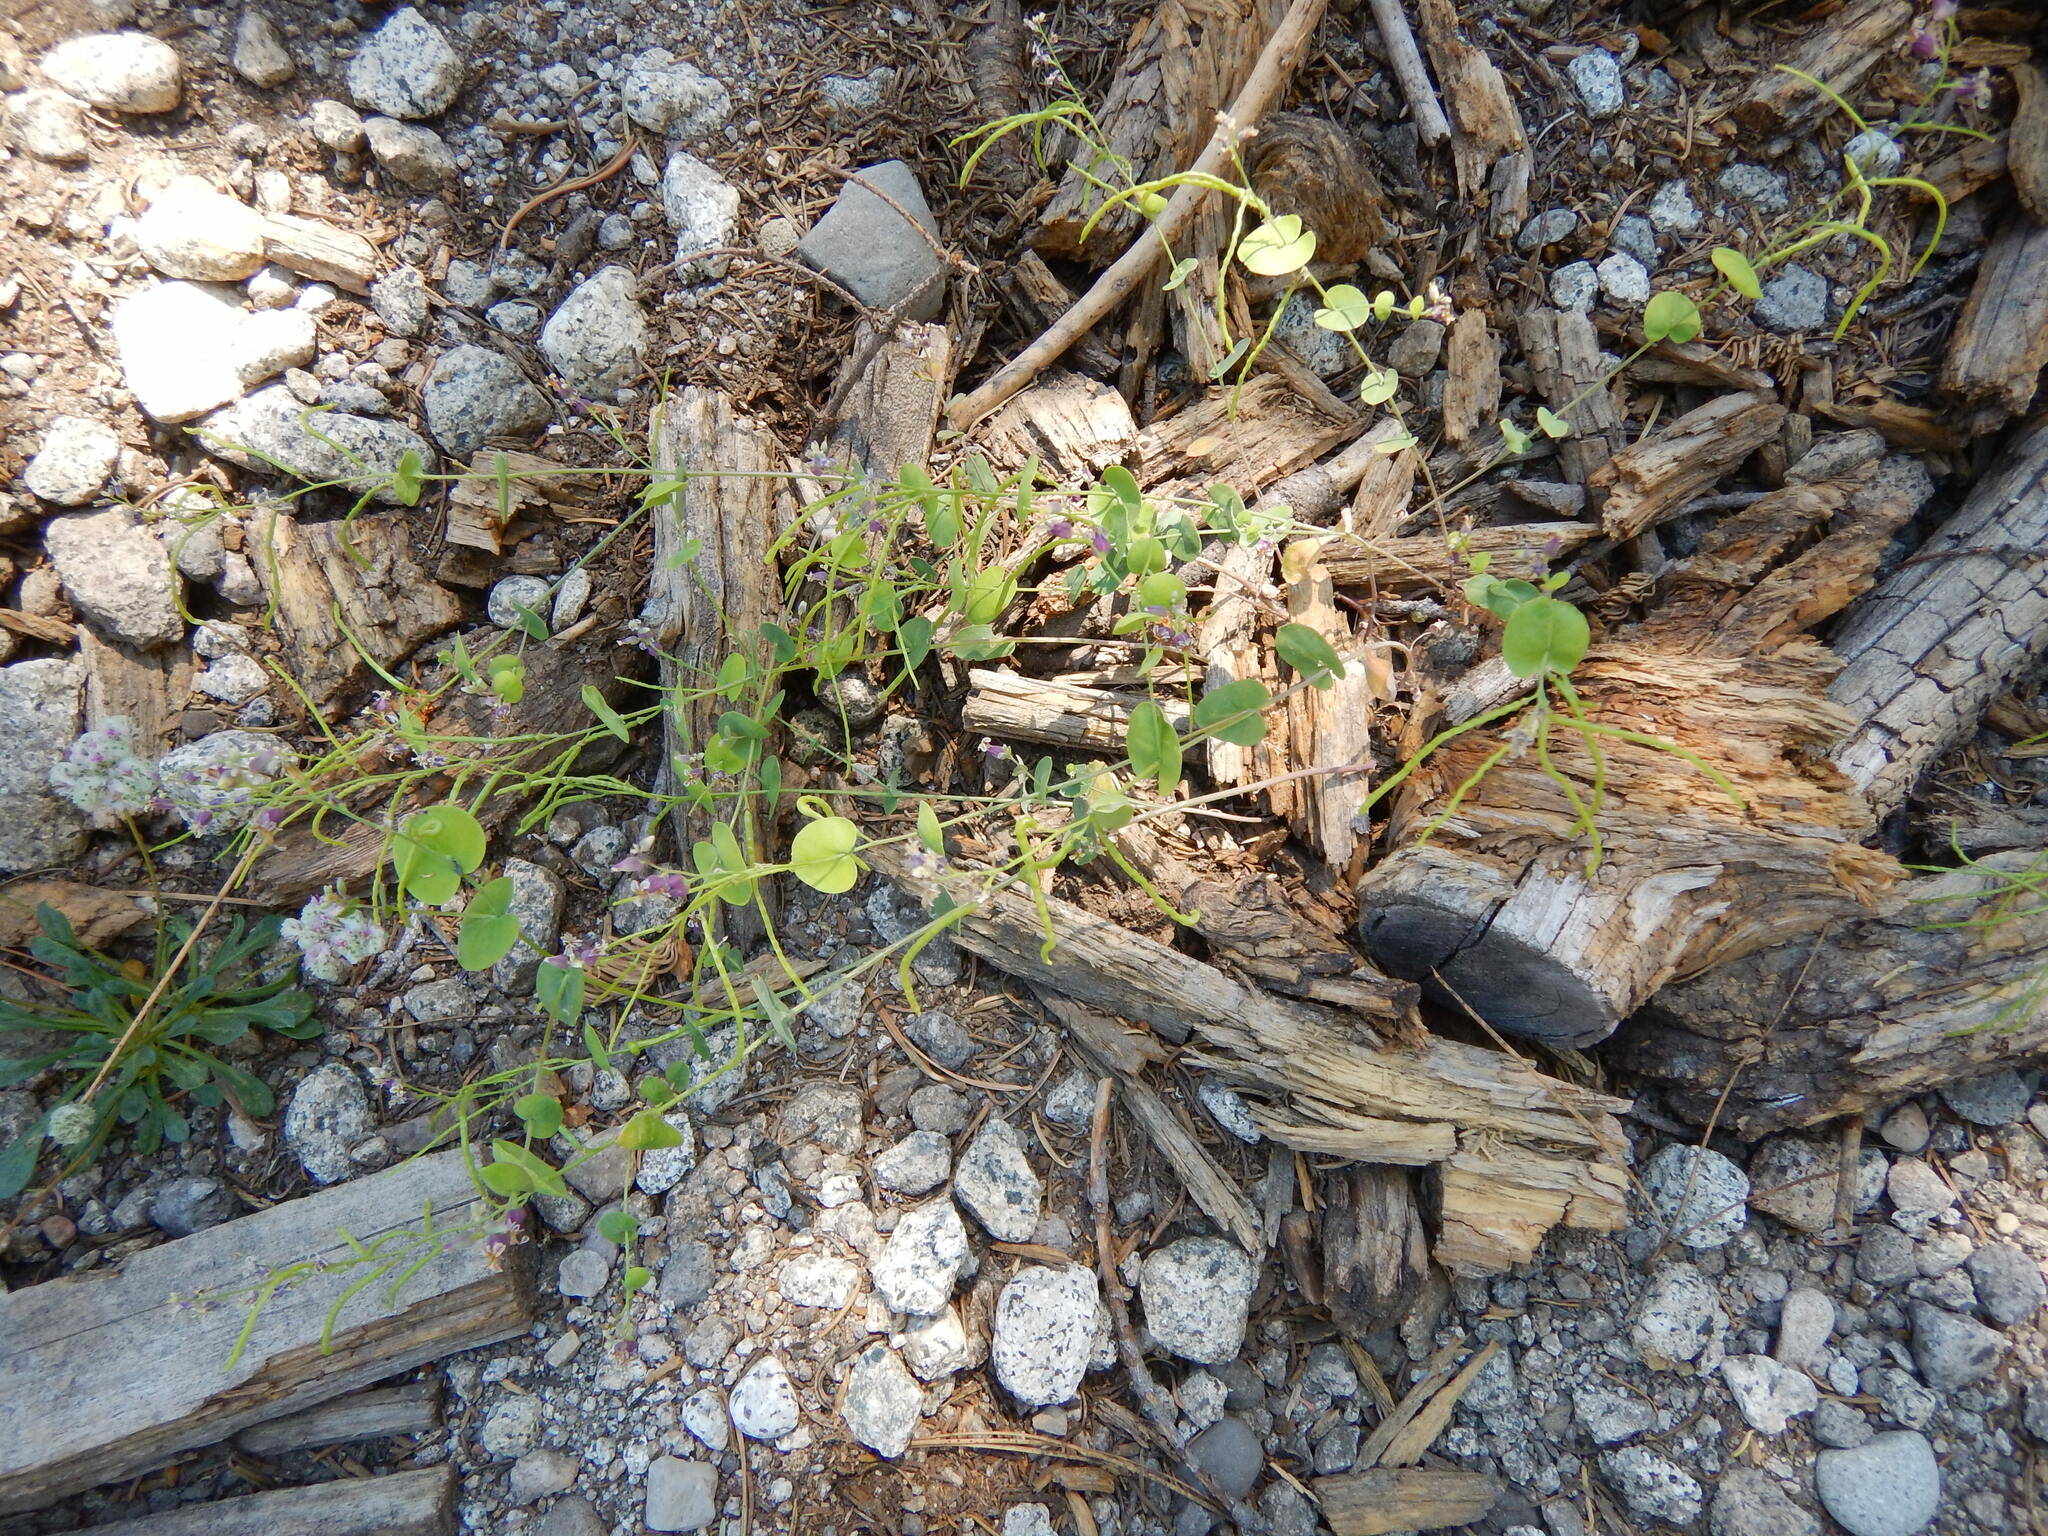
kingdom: Plantae
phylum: Tracheophyta
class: Magnoliopsida
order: Brassicales
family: Brassicaceae
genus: Streptanthus
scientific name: Streptanthus tortuosus
